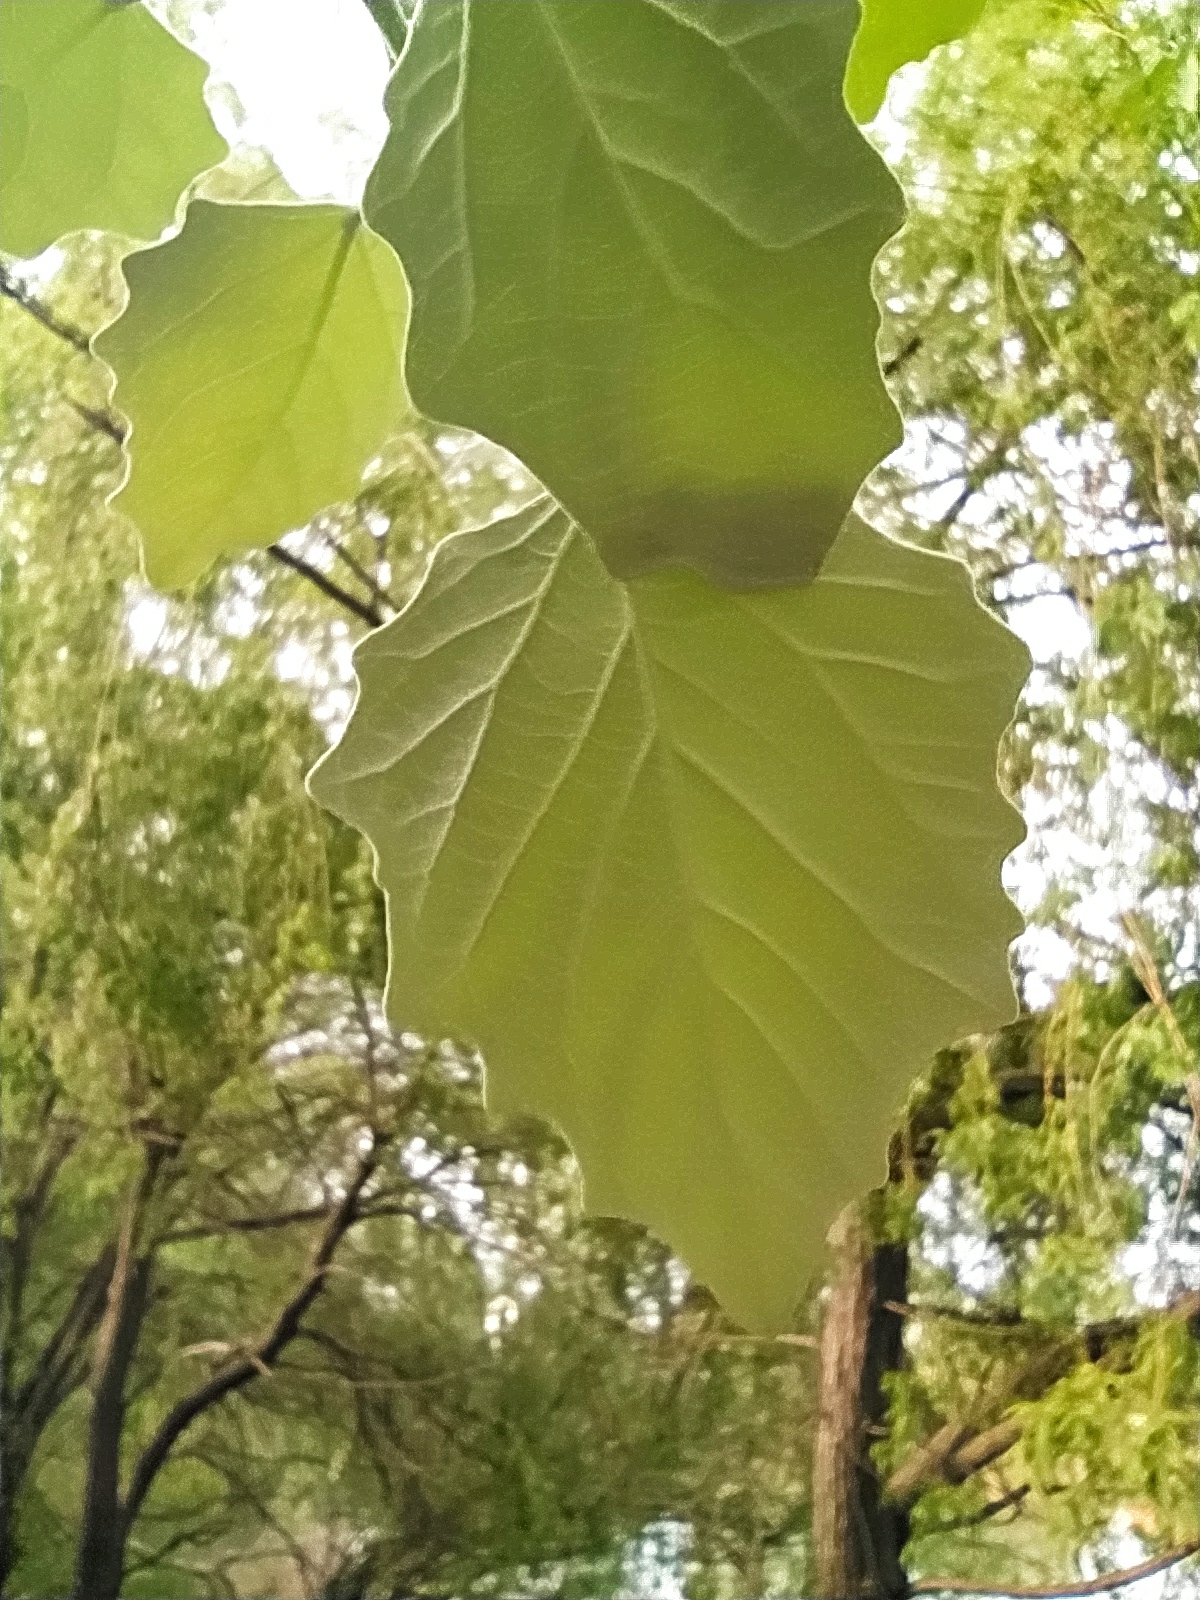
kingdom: Plantae
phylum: Tracheophyta
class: Magnoliopsida
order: Malpighiales
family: Salicaceae
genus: Populus
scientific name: Populus alba
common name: White poplar
